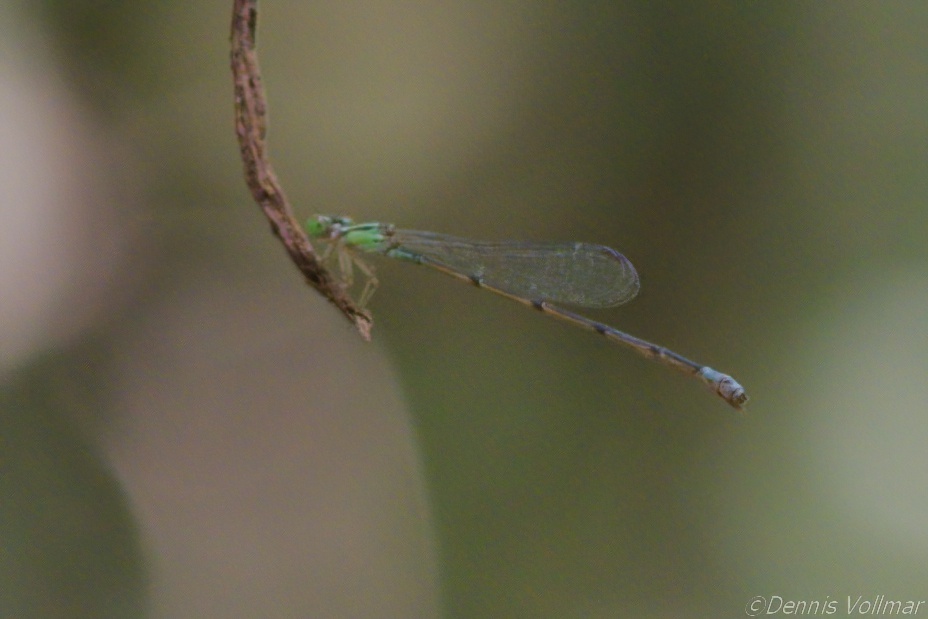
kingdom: Animalia
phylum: Arthropoda
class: Insecta
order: Odonata
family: Coenagrionidae
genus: Leptobasis
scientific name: Leptobasis lucifer
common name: Lucifer swampdamsel
